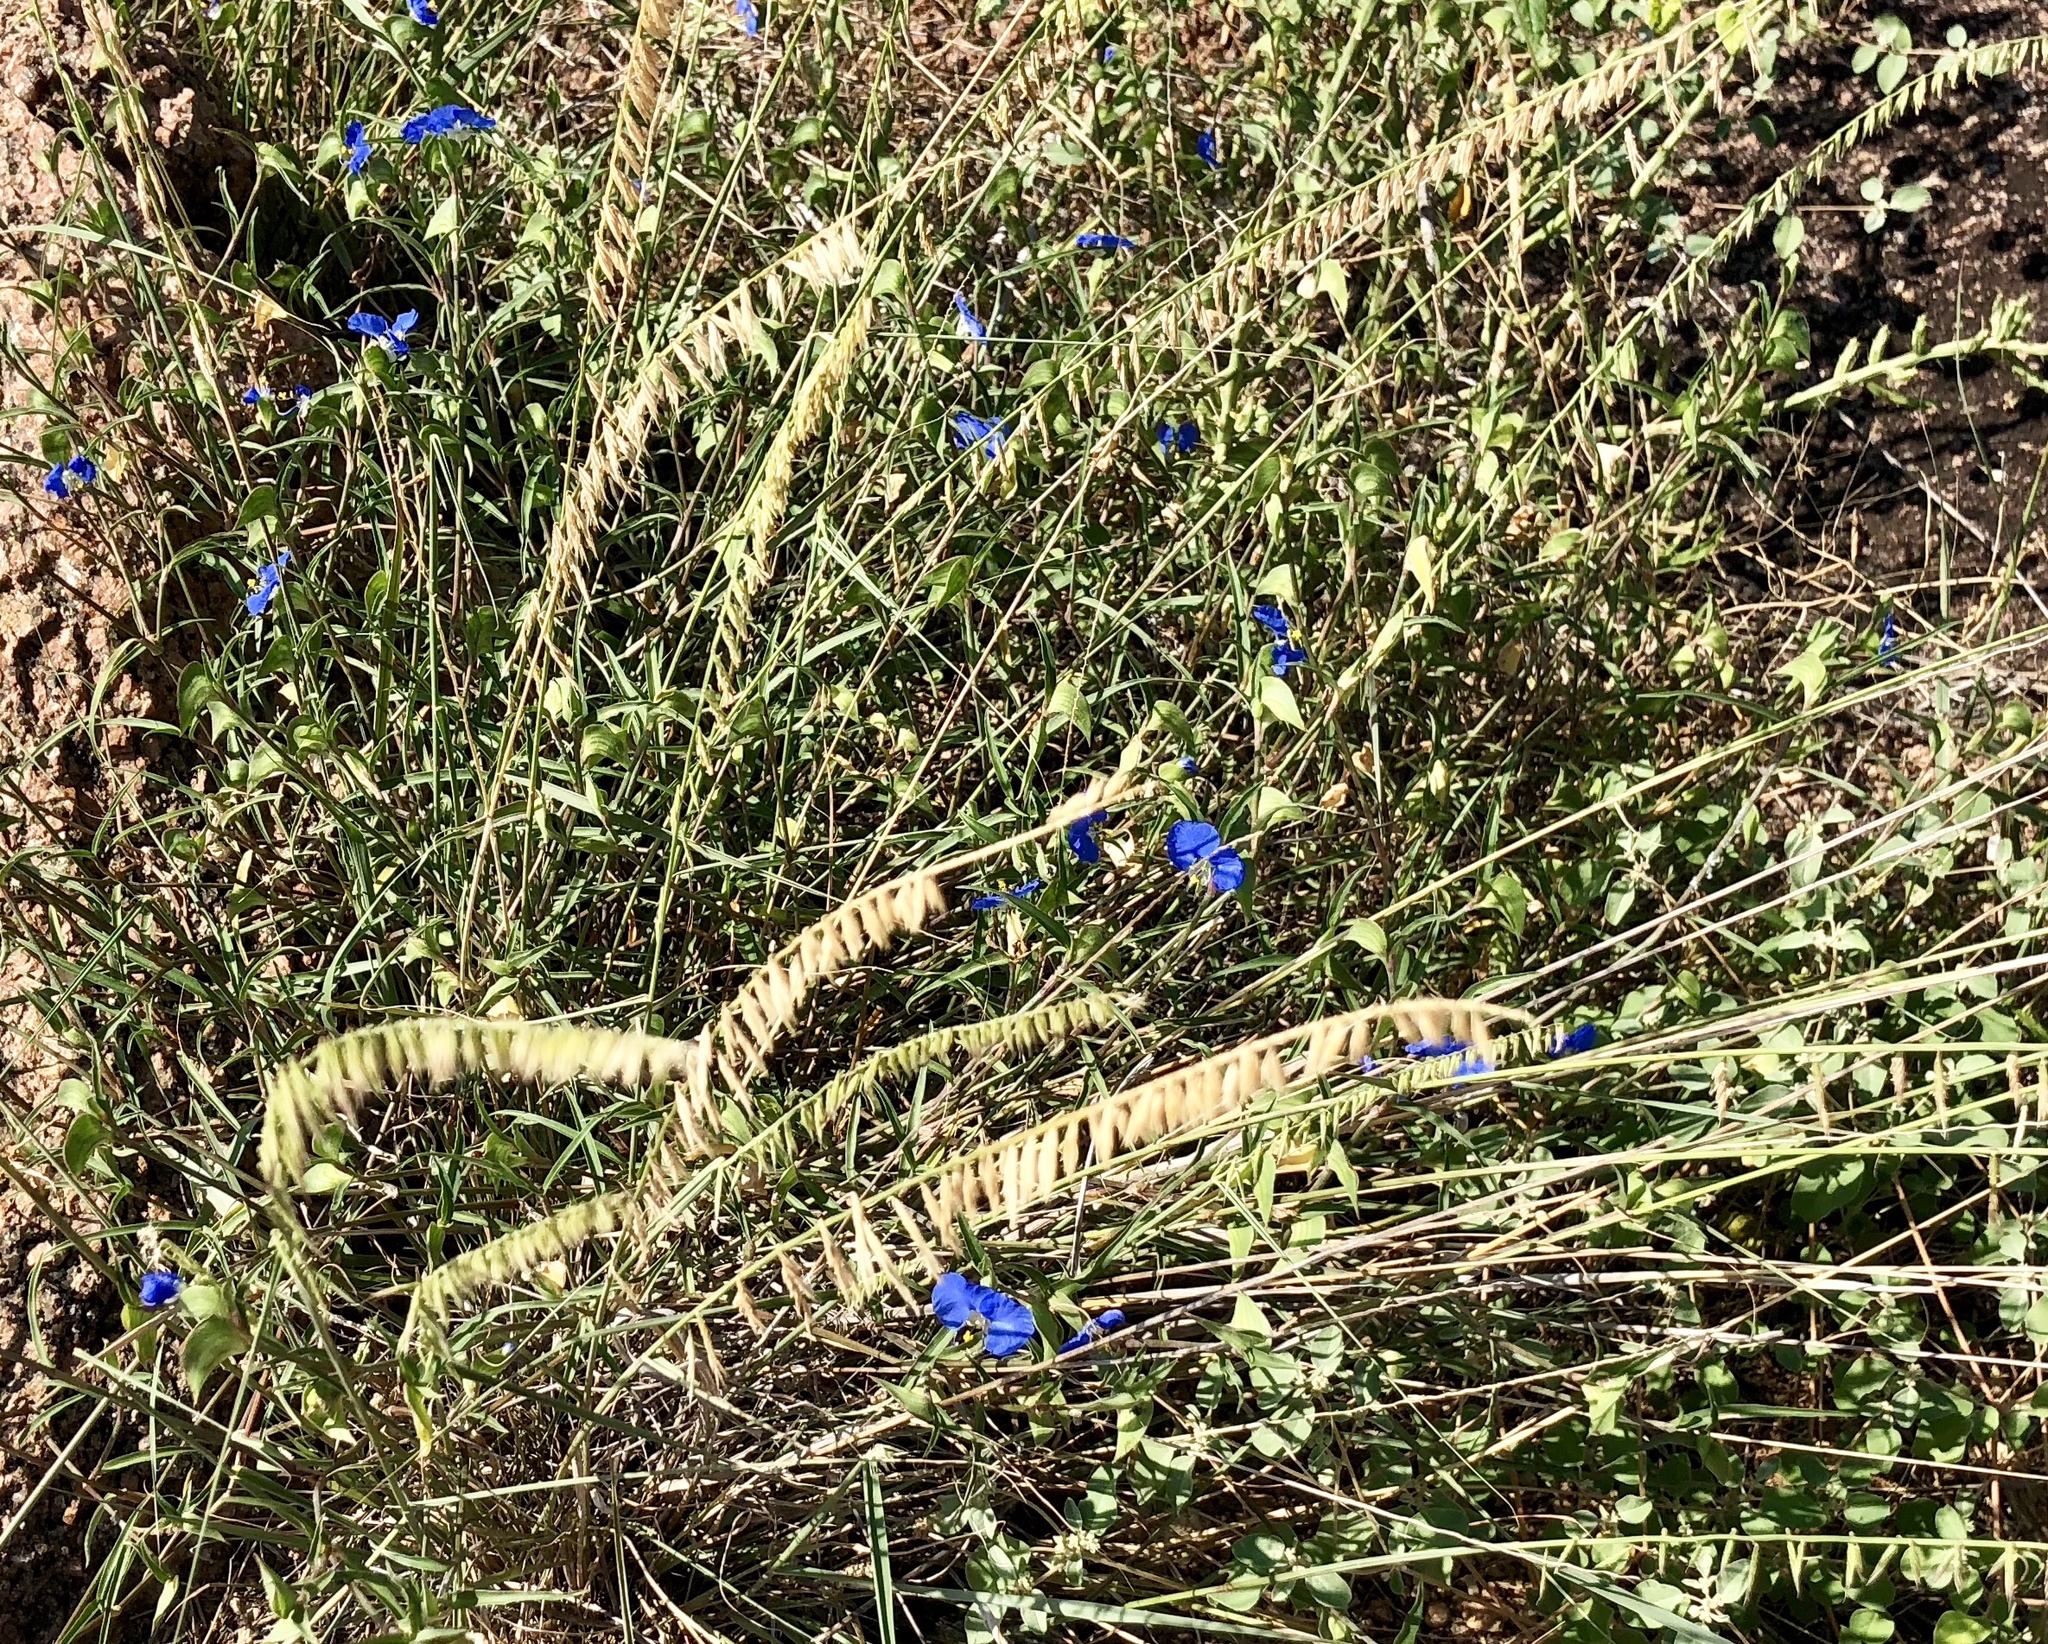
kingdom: Plantae
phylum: Tracheophyta
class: Liliopsida
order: Commelinales
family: Commelinaceae
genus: Commelina
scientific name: Commelina erecta
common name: Blousel blommetjie
